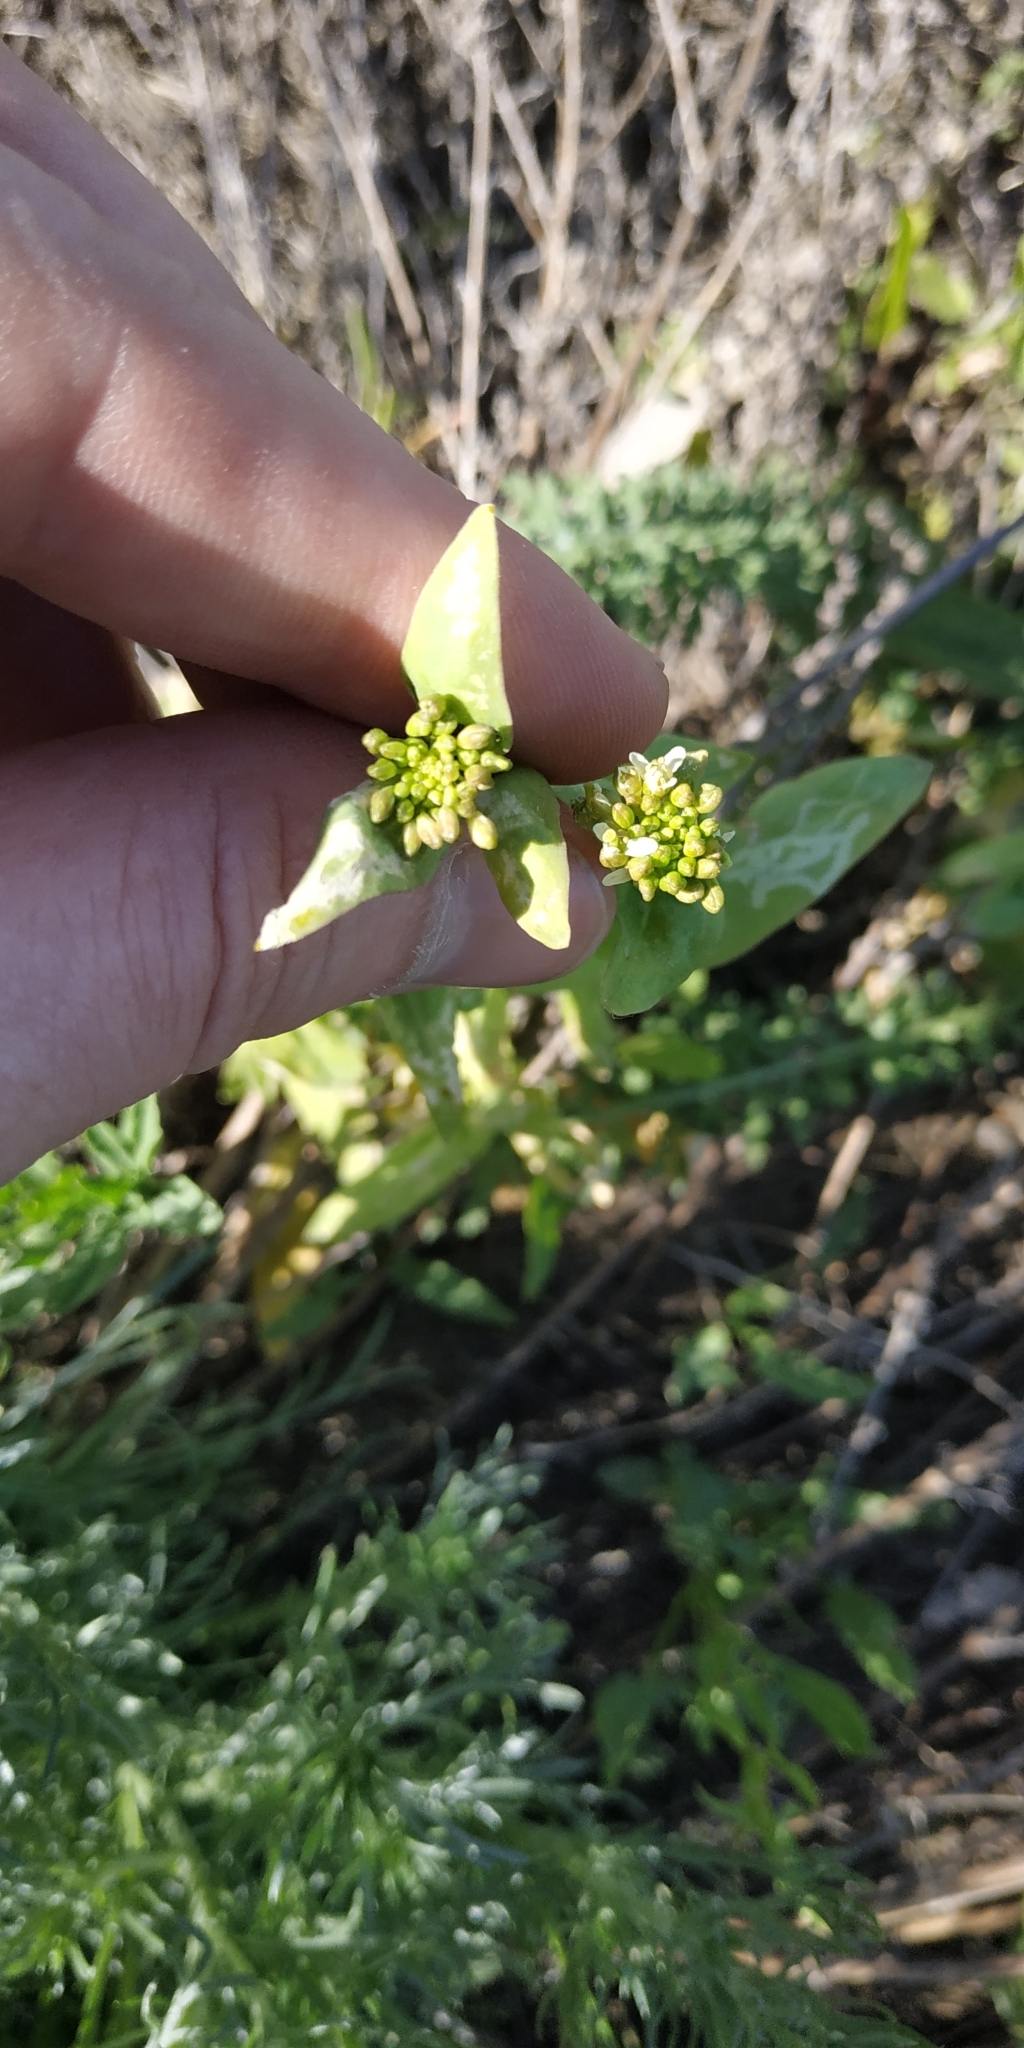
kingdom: Plantae
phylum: Tracheophyta
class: Magnoliopsida
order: Brassicales
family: Brassicaceae
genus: Turritis
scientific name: Turritis glabra
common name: Tower rockcress
